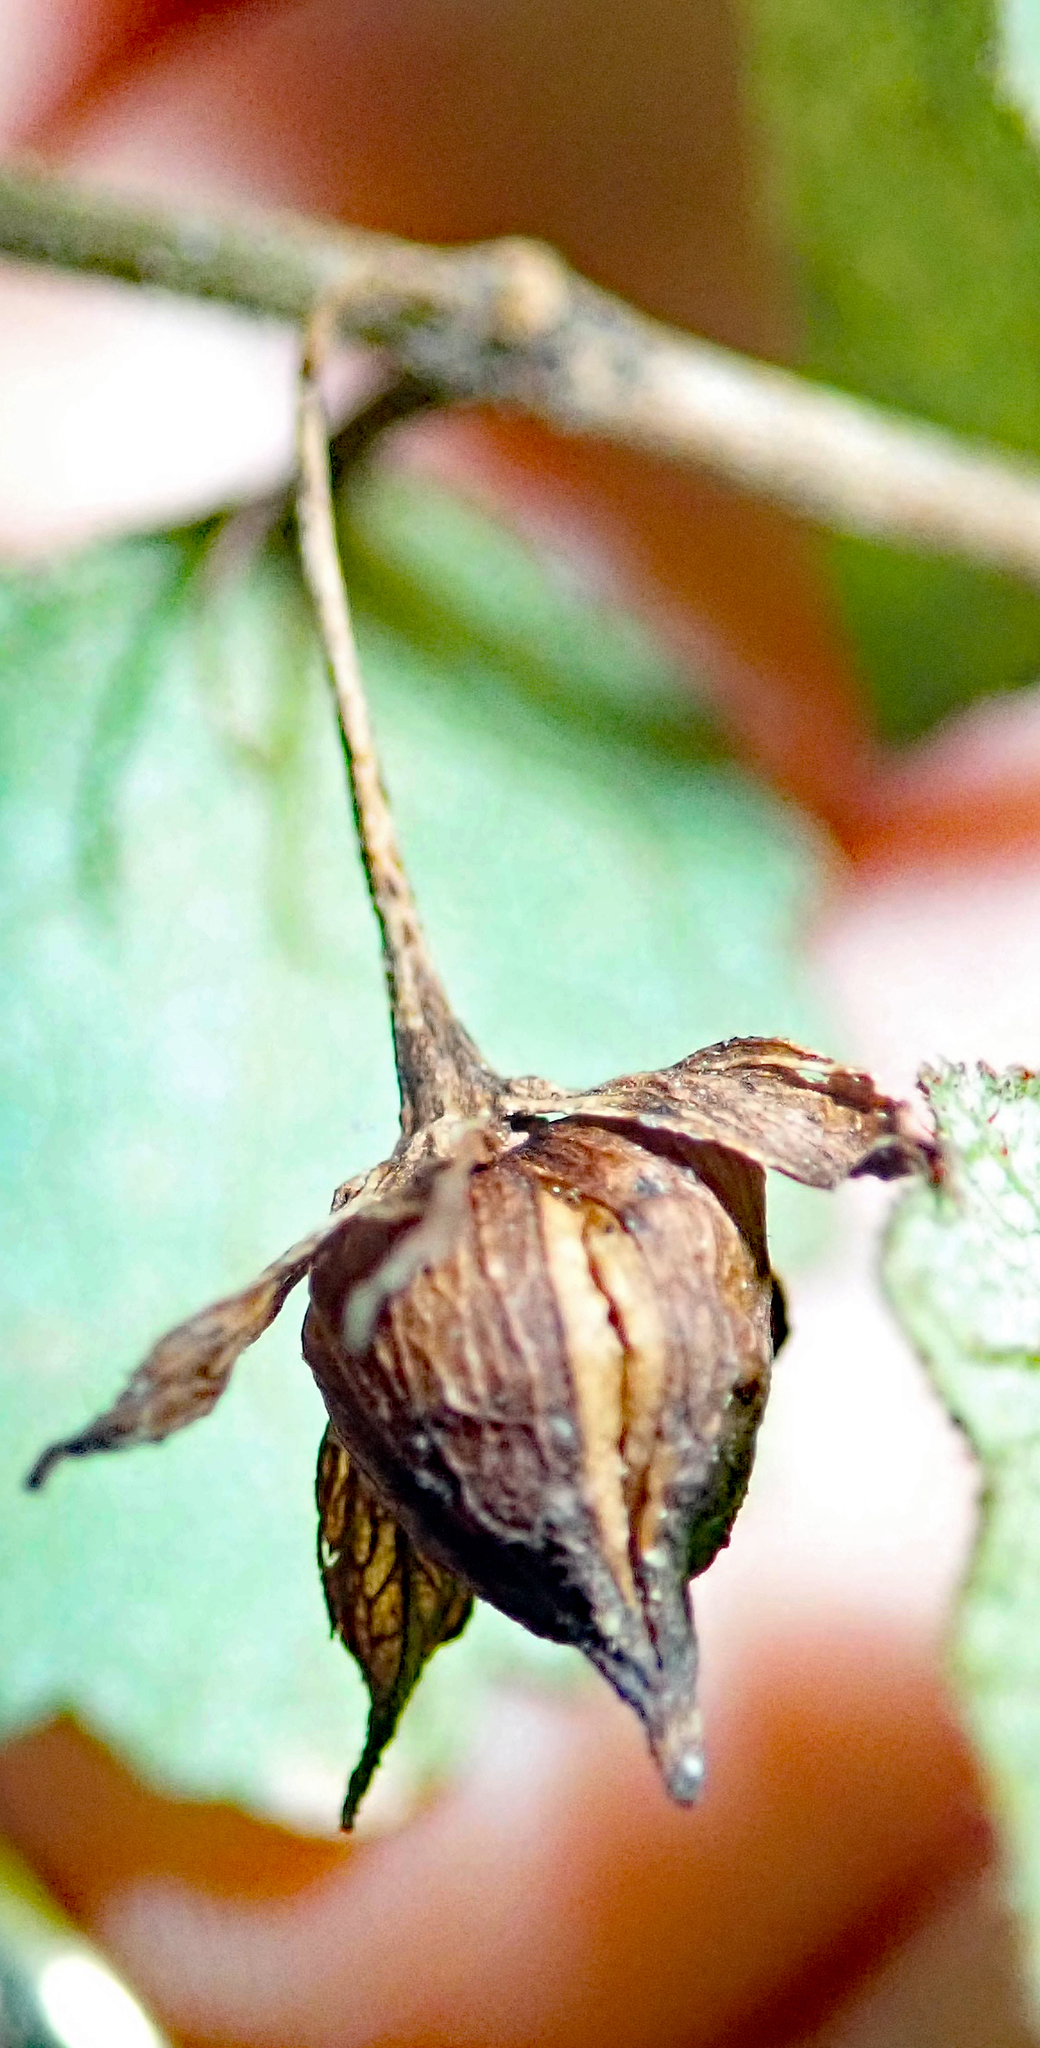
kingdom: Plantae
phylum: Tracheophyta
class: Magnoliopsida
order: Lamiales
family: Gesneriaceae
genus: Rhabdothamnus
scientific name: Rhabdothamnus solandri
